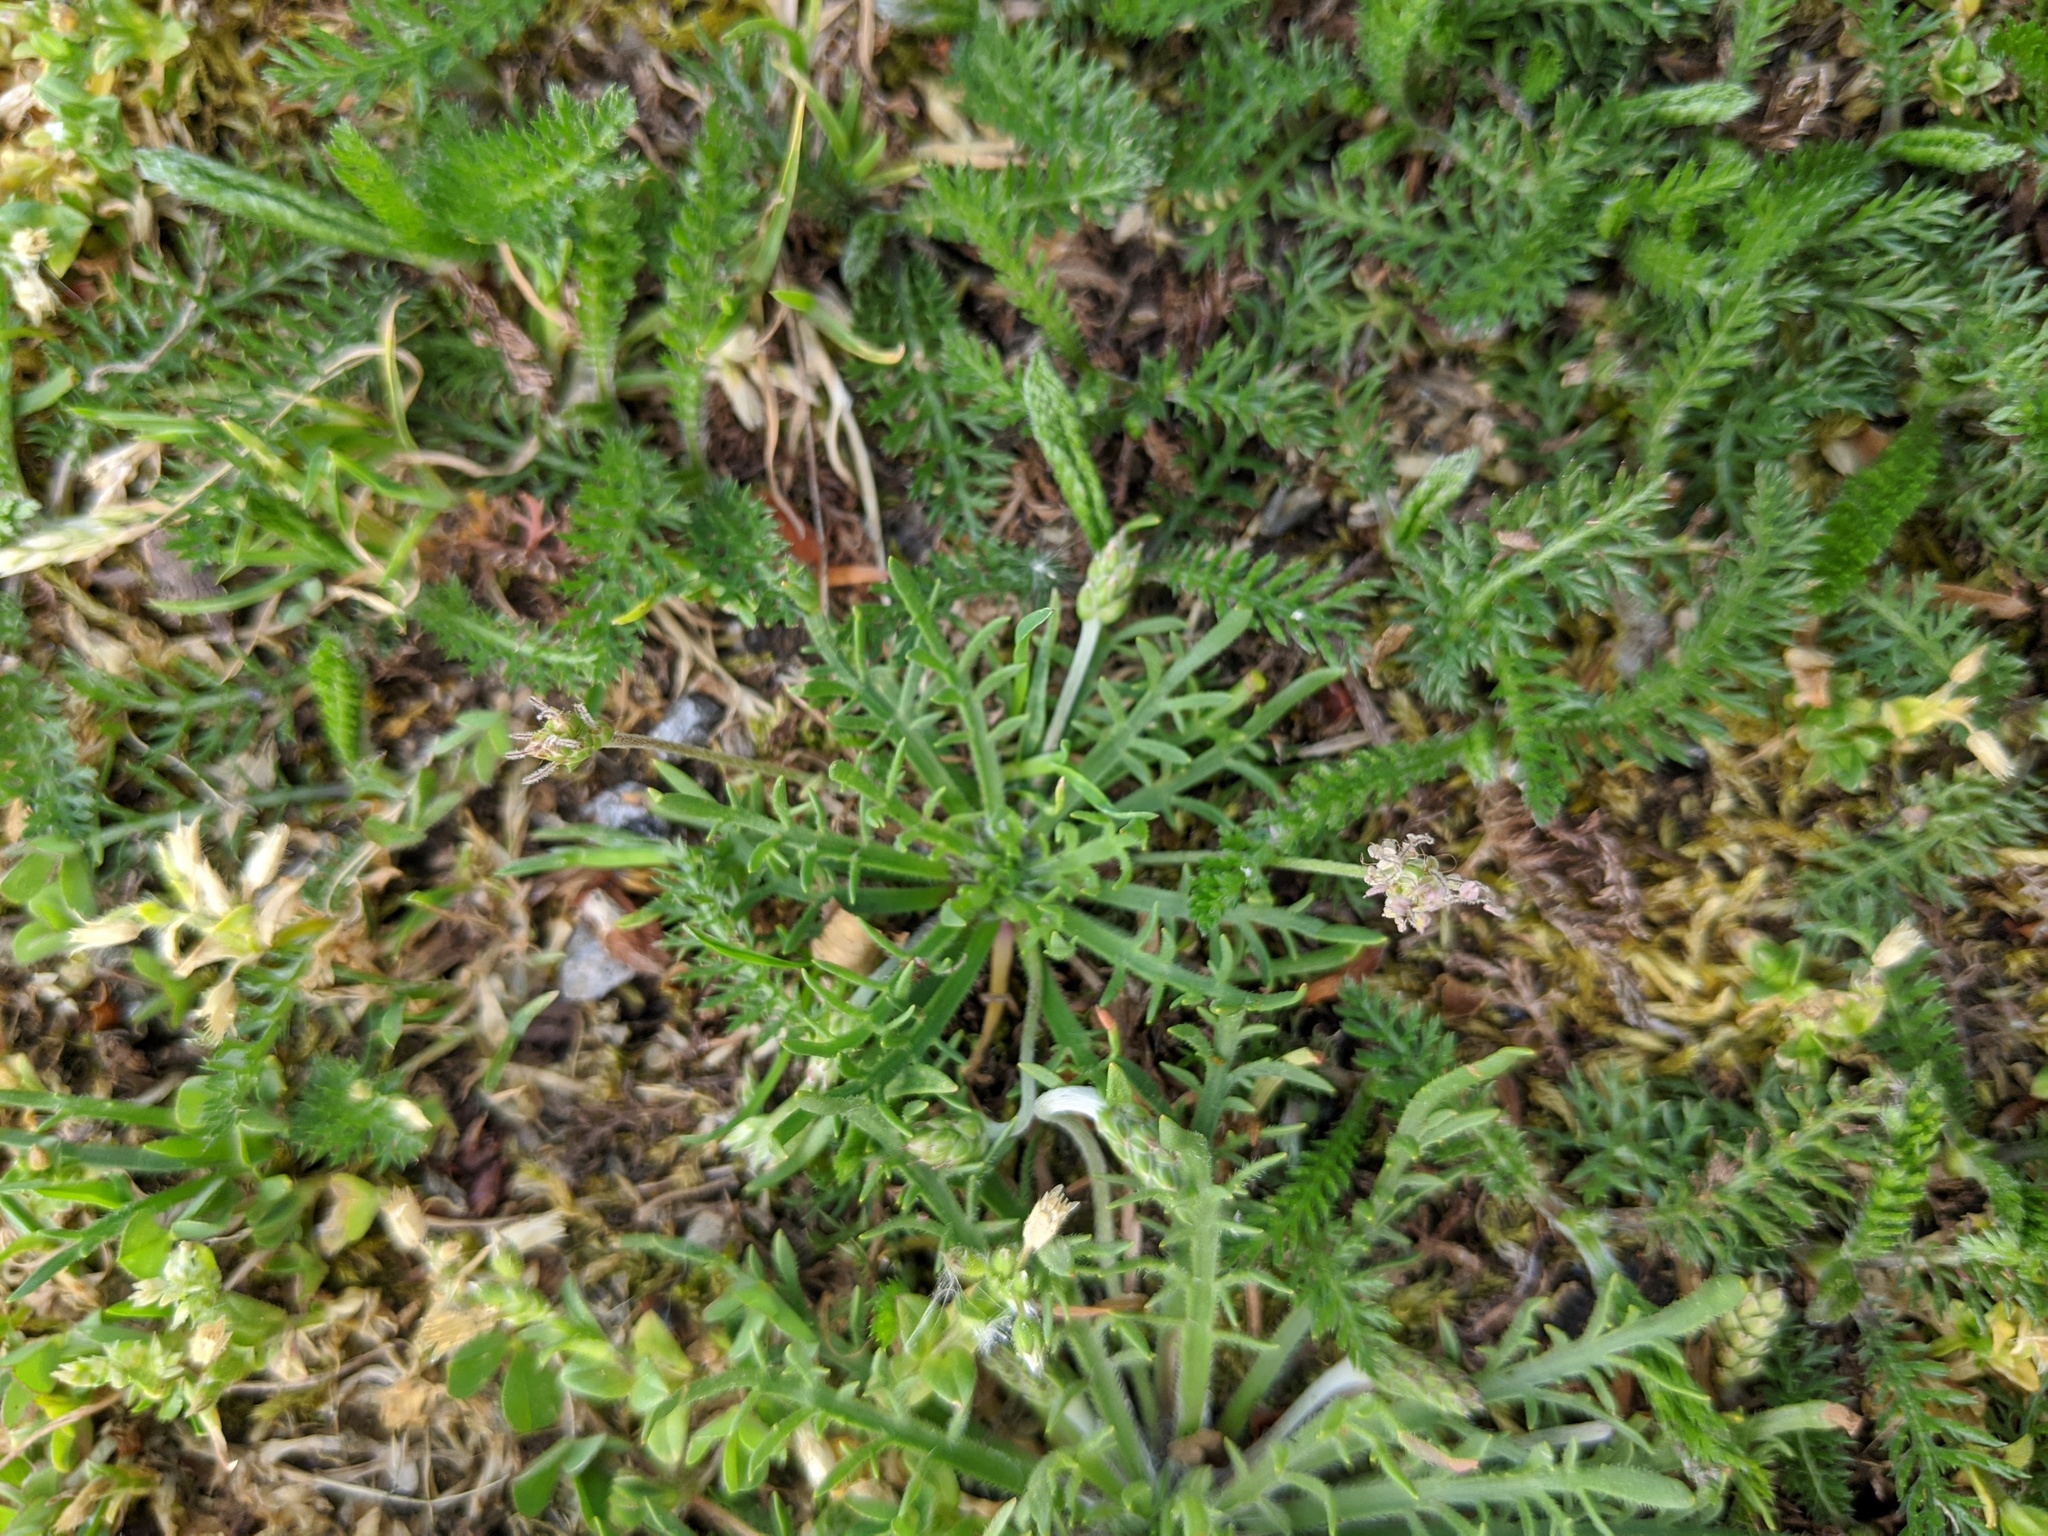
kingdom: Plantae
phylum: Tracheophyta
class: Magnoliopsida
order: Lamiales
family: Plantaginaceae
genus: Plantago
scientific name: Plantago coronopus
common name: Buck's-horn plantain
